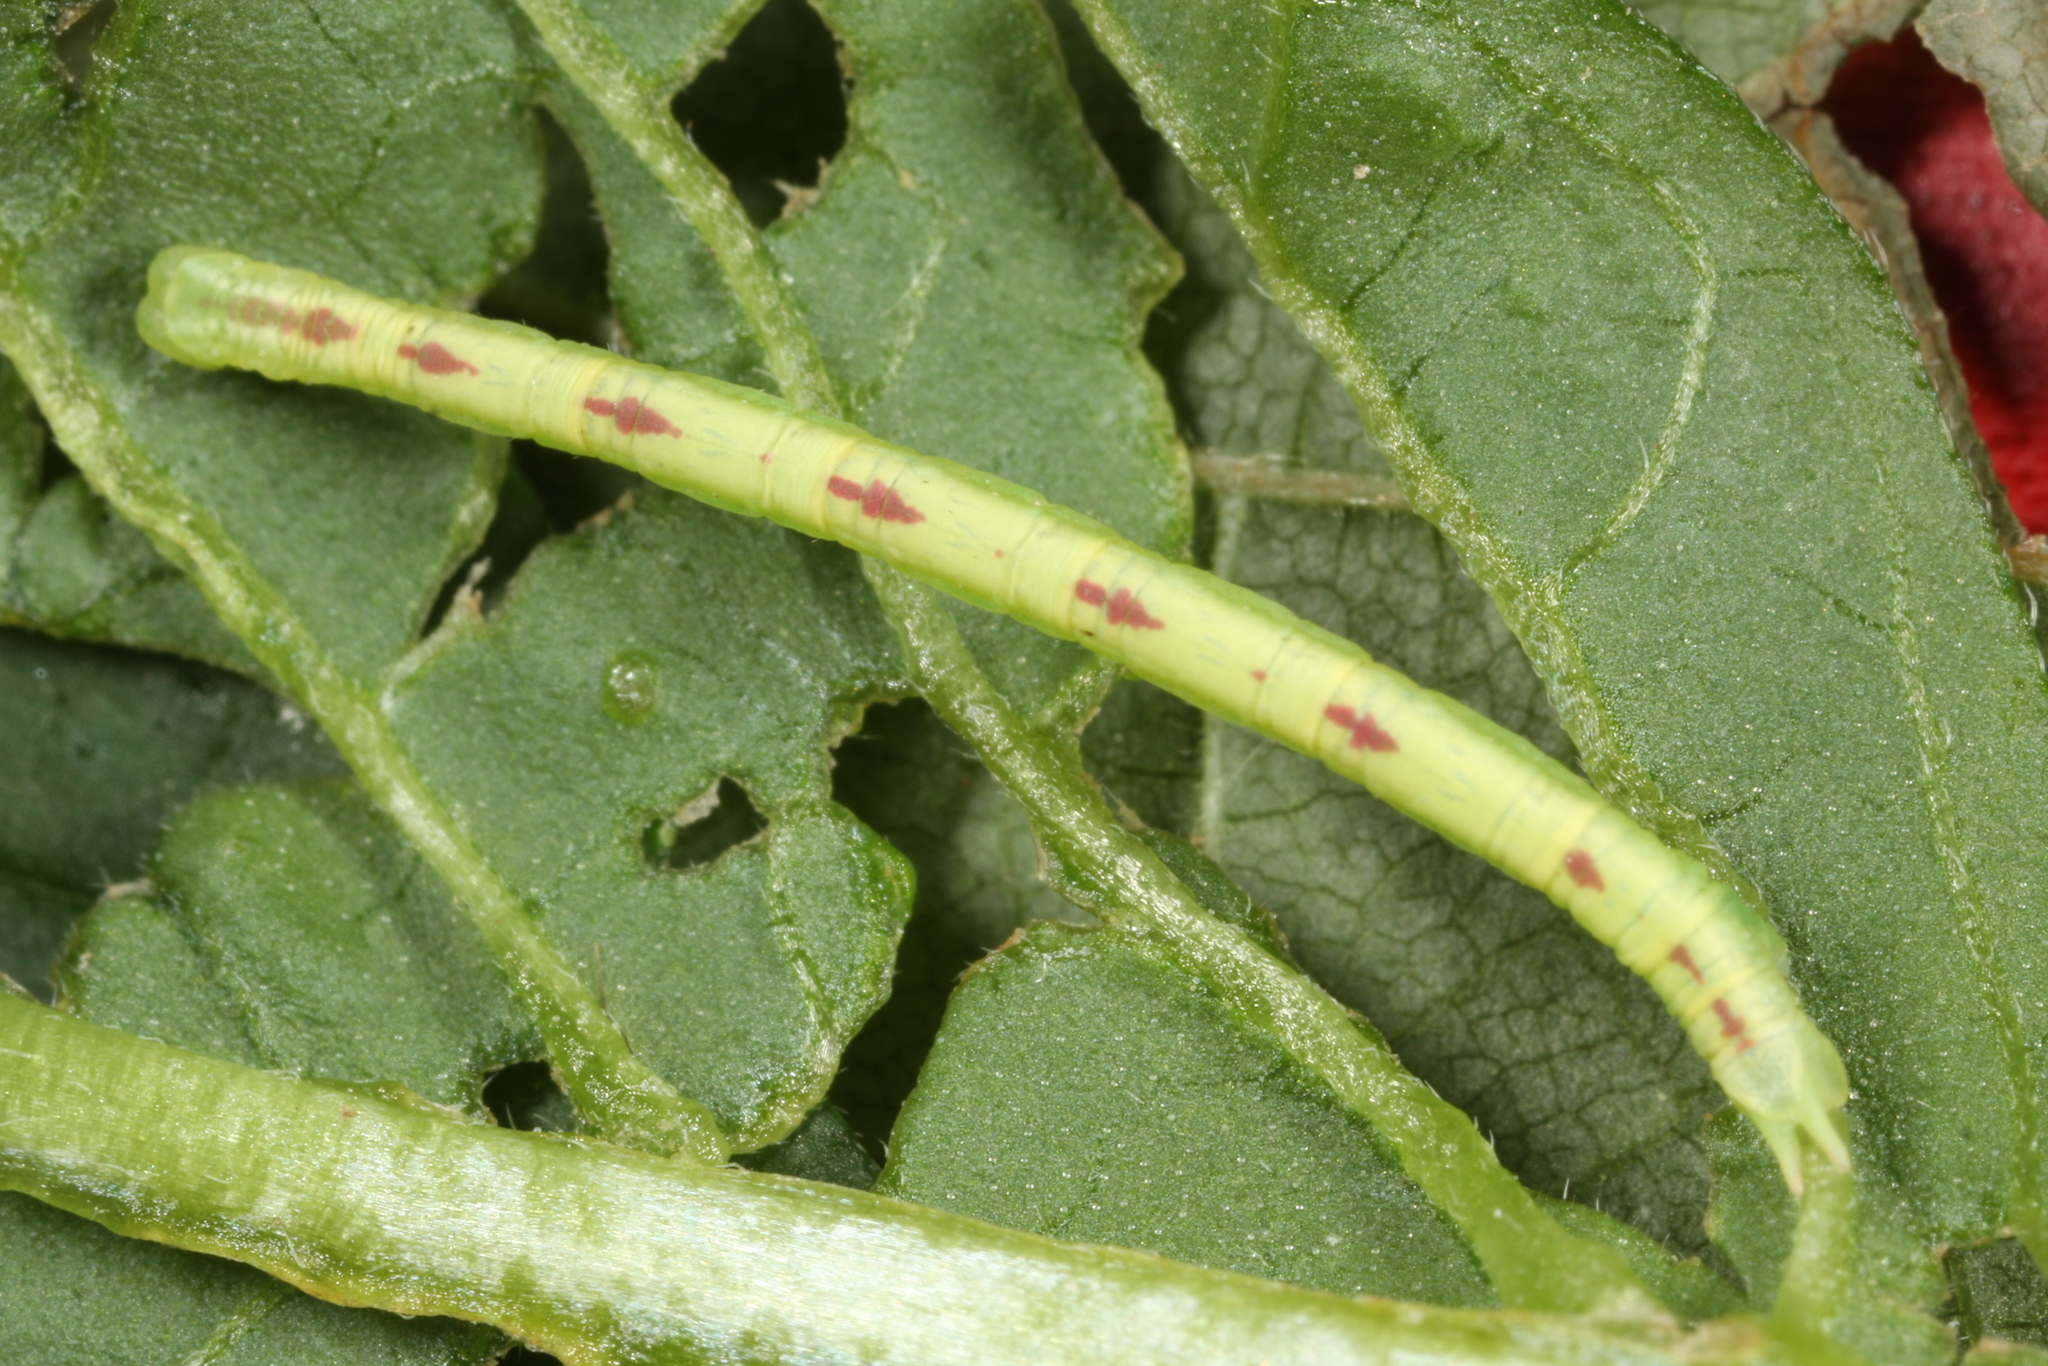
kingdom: Animalia
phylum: Arthropoda
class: Insecta
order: Lepidoptera
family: Geometridae
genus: Chloroclysta
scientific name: Chloroclysta siterata
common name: Red-green carpet
